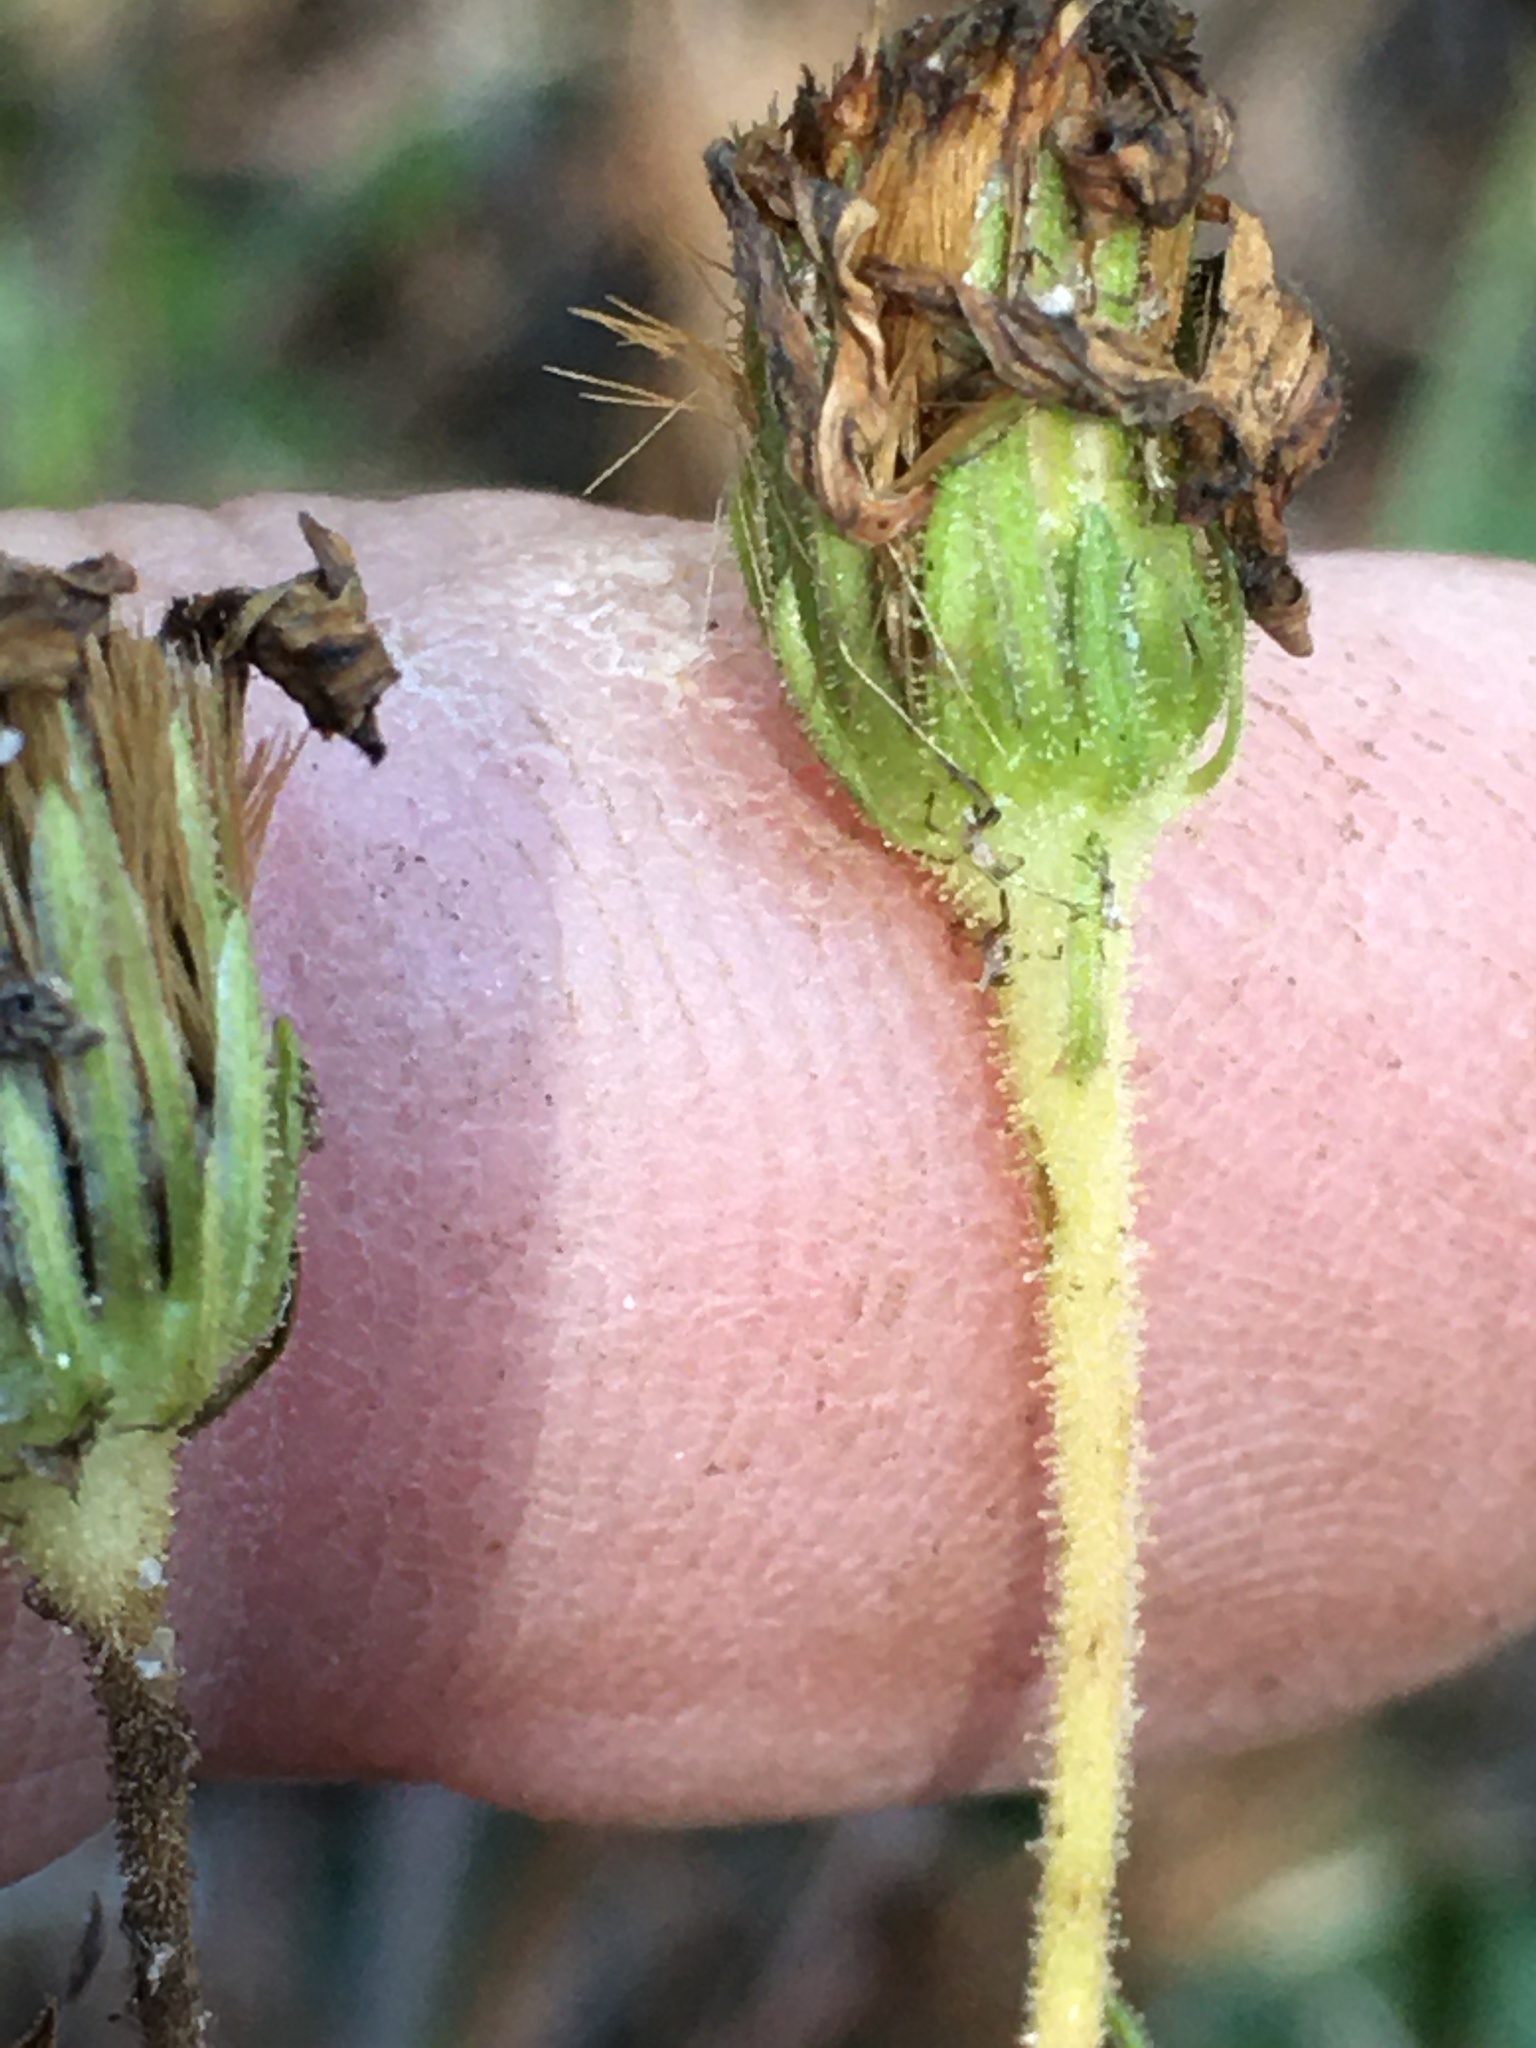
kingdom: Plantae
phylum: Tracheophyta
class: Magnoliopsida
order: Asterales
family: Asteraceae
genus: Chrysopsis
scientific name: Chrysopsis mariana
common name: Maryland golden-aster
